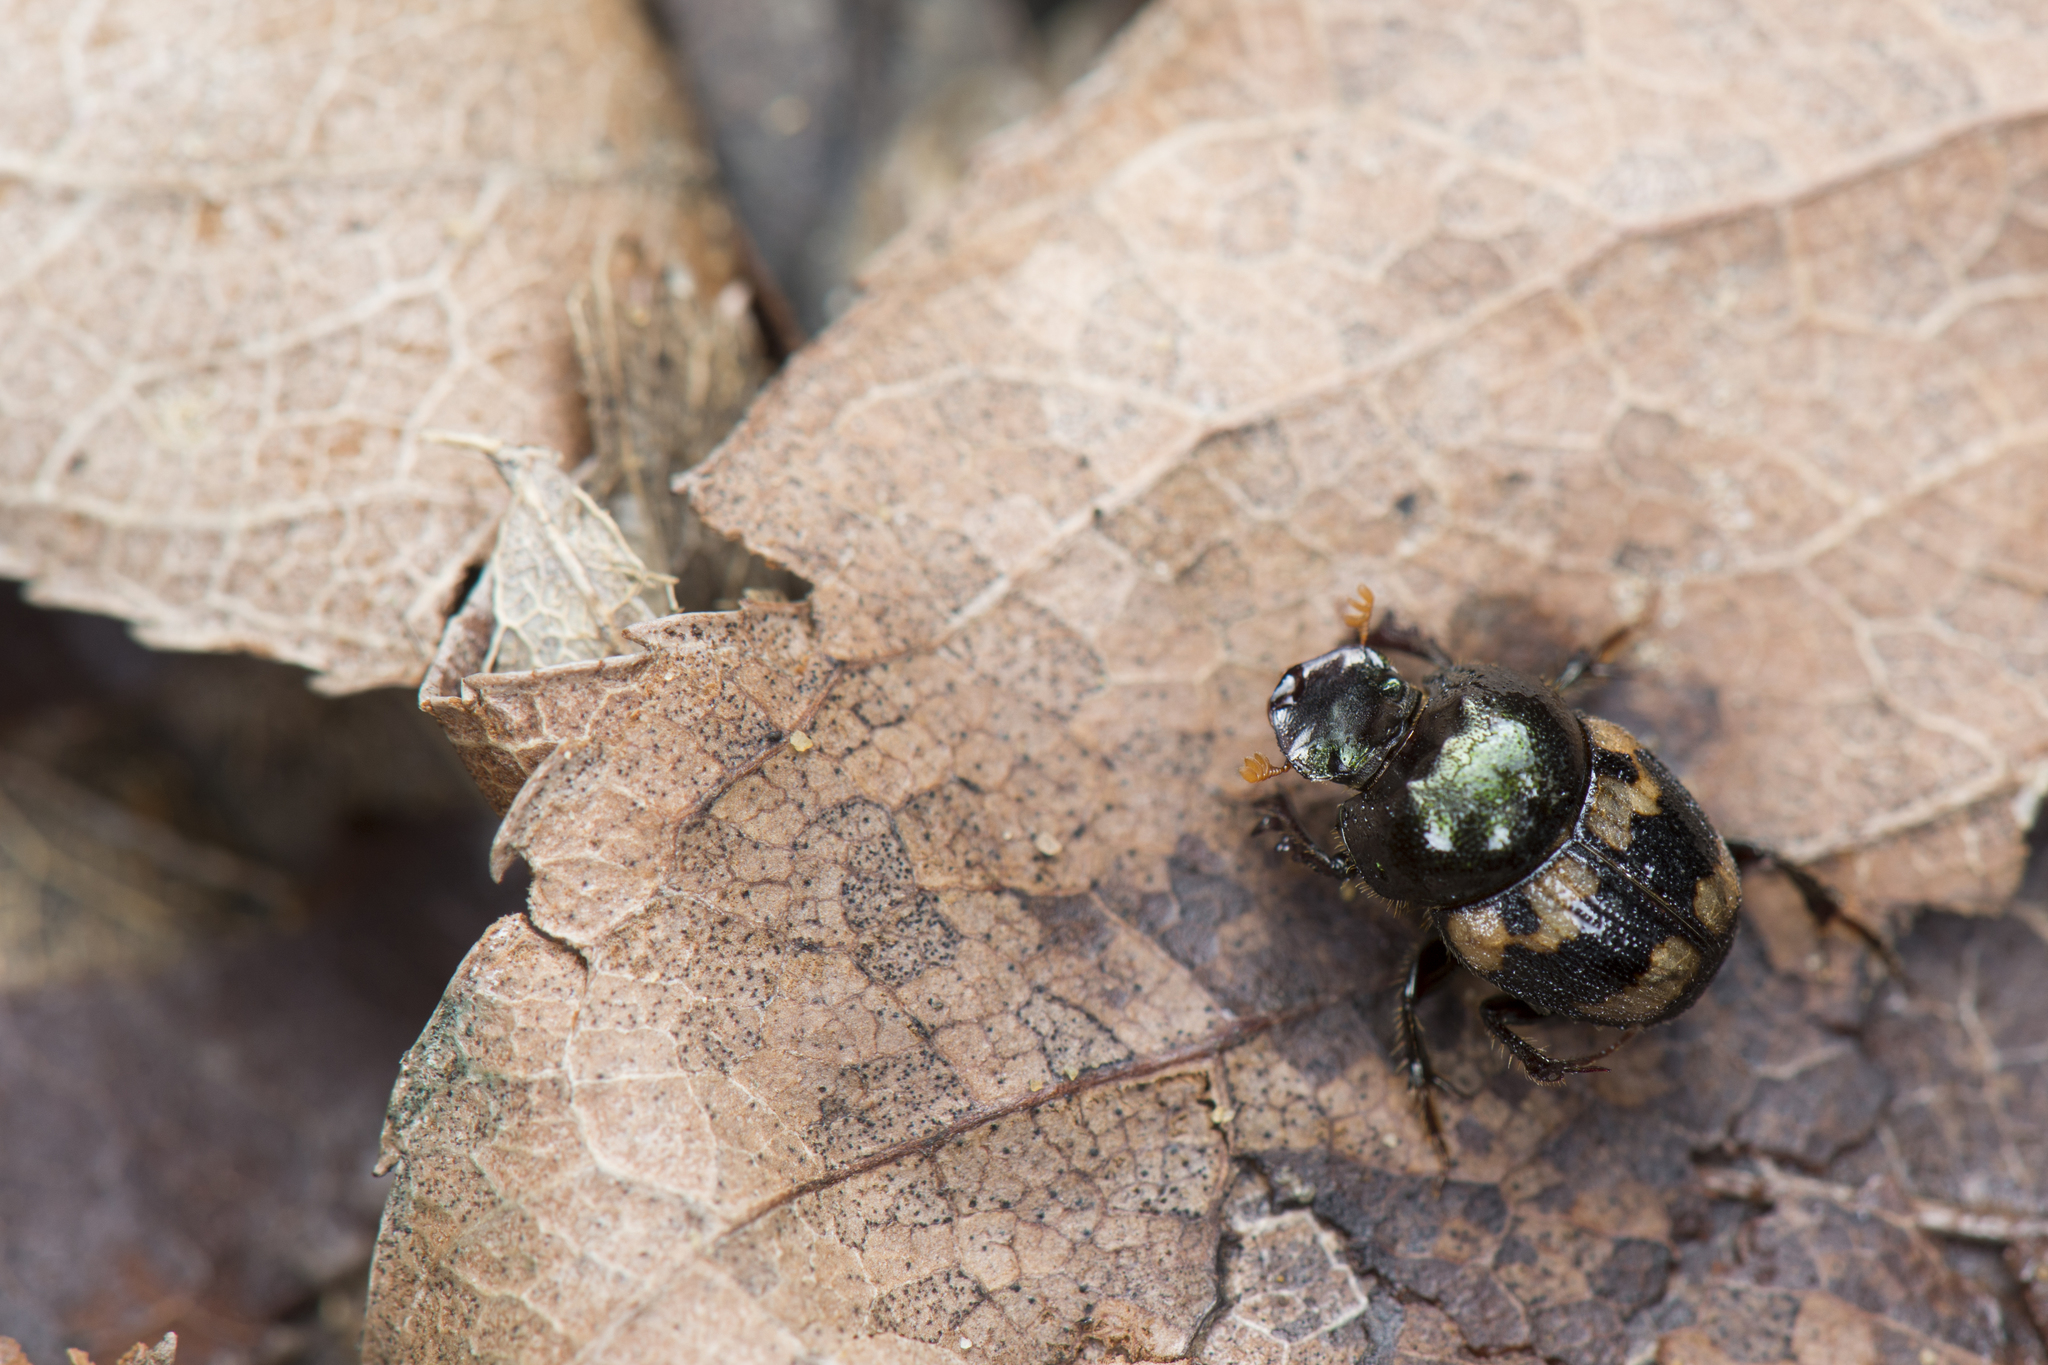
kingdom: Animalia
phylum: Arthropoda
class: Insecta
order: Coleoptera
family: Scarabaeidae
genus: Onthophagus
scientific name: Onthophagus trituber
